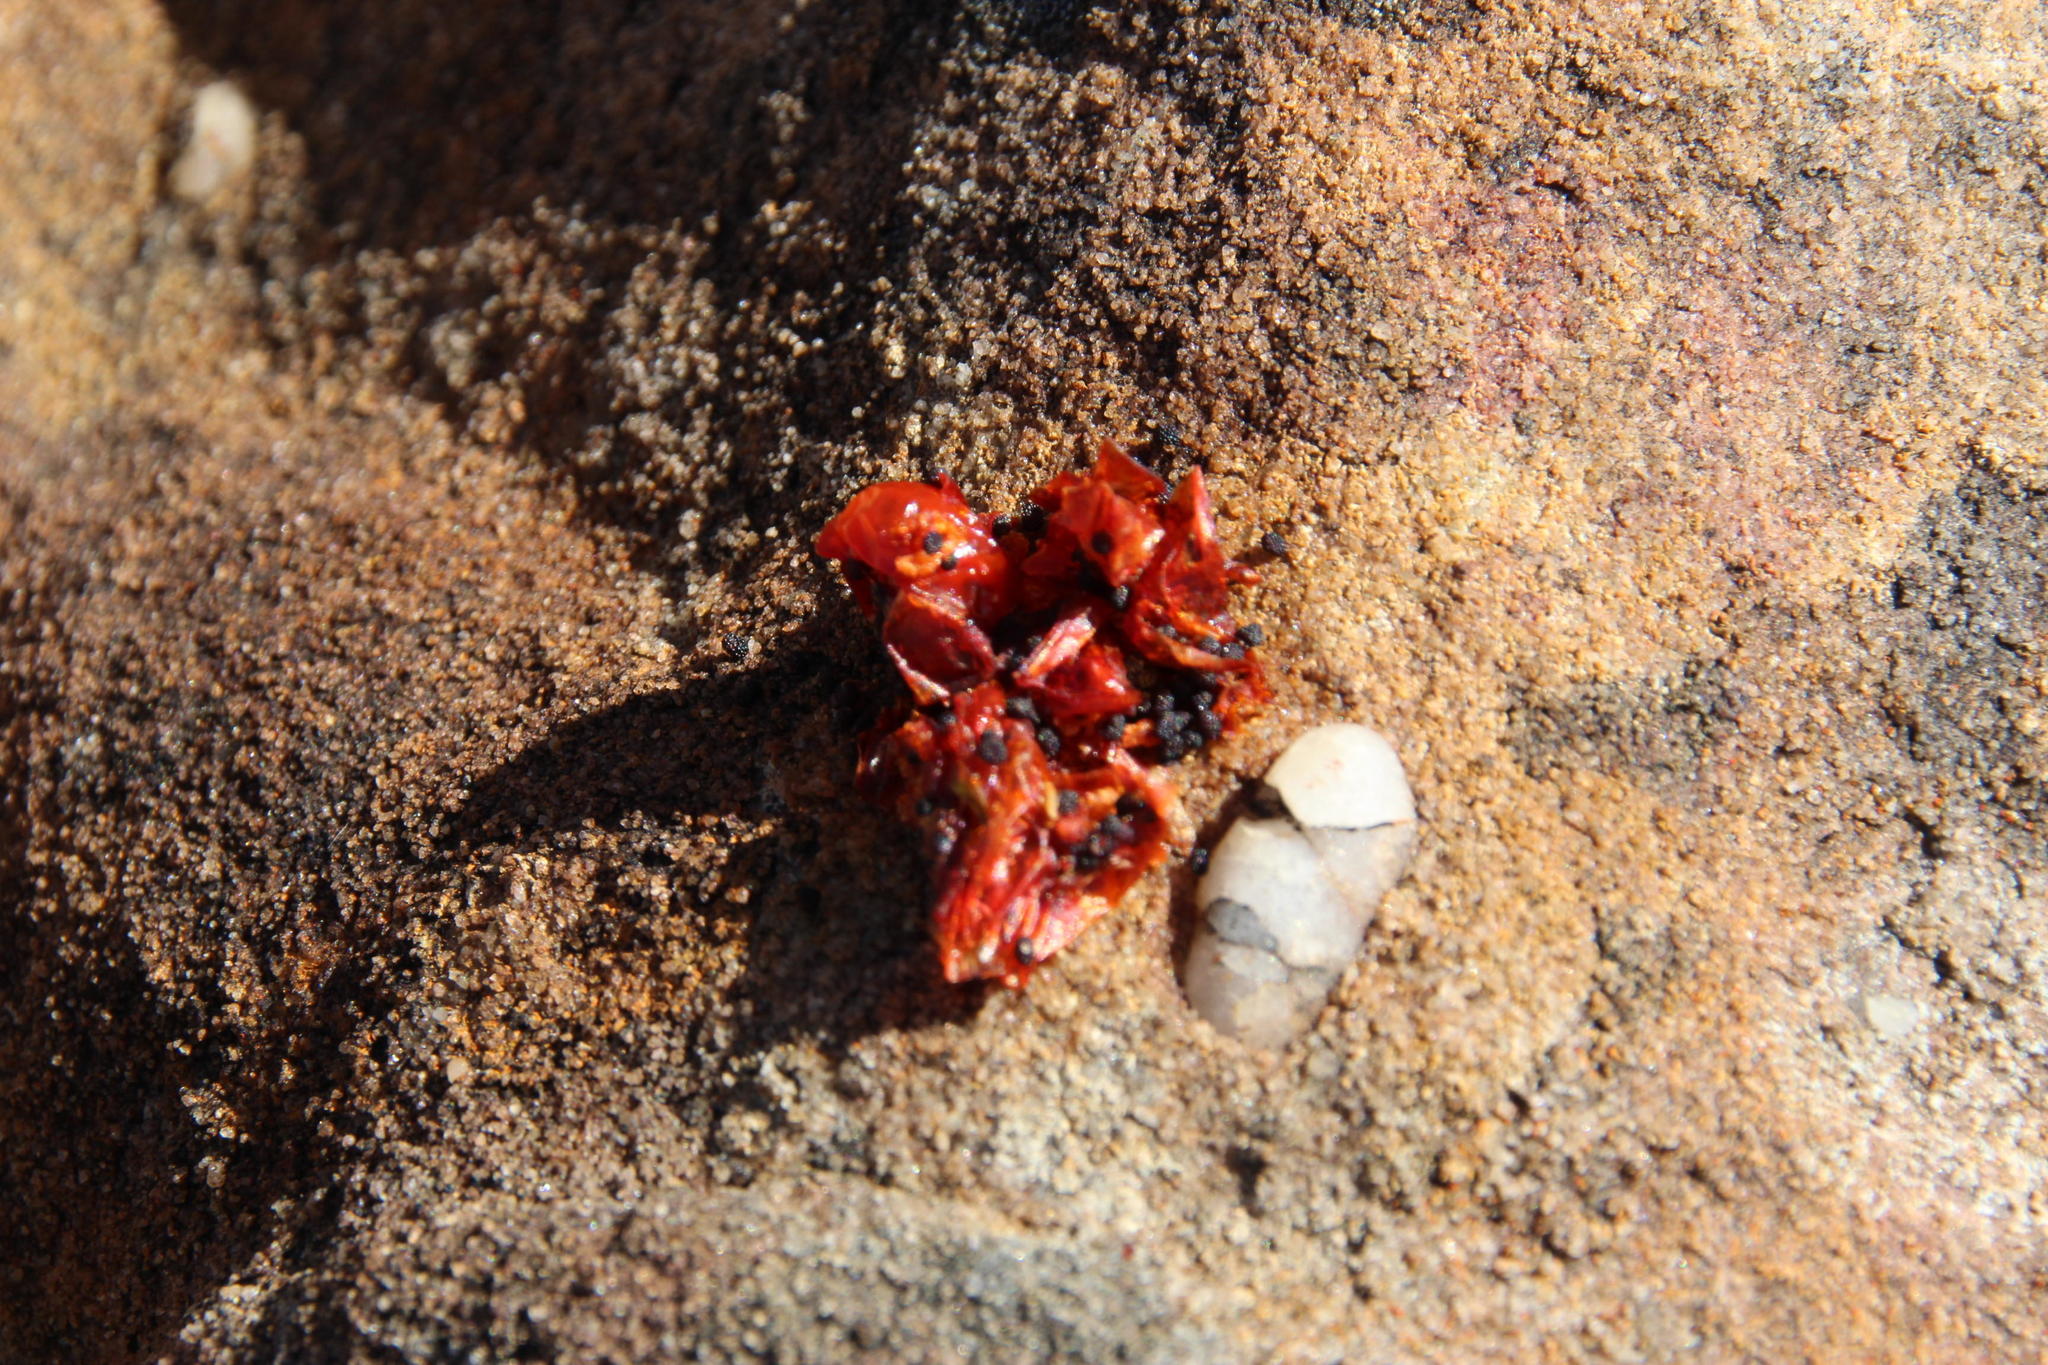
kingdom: Plantae
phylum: Tracheophyta
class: Magnoliopsida
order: Gentianales
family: Gentianaceae
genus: Chironia
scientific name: Chironia baccifera
